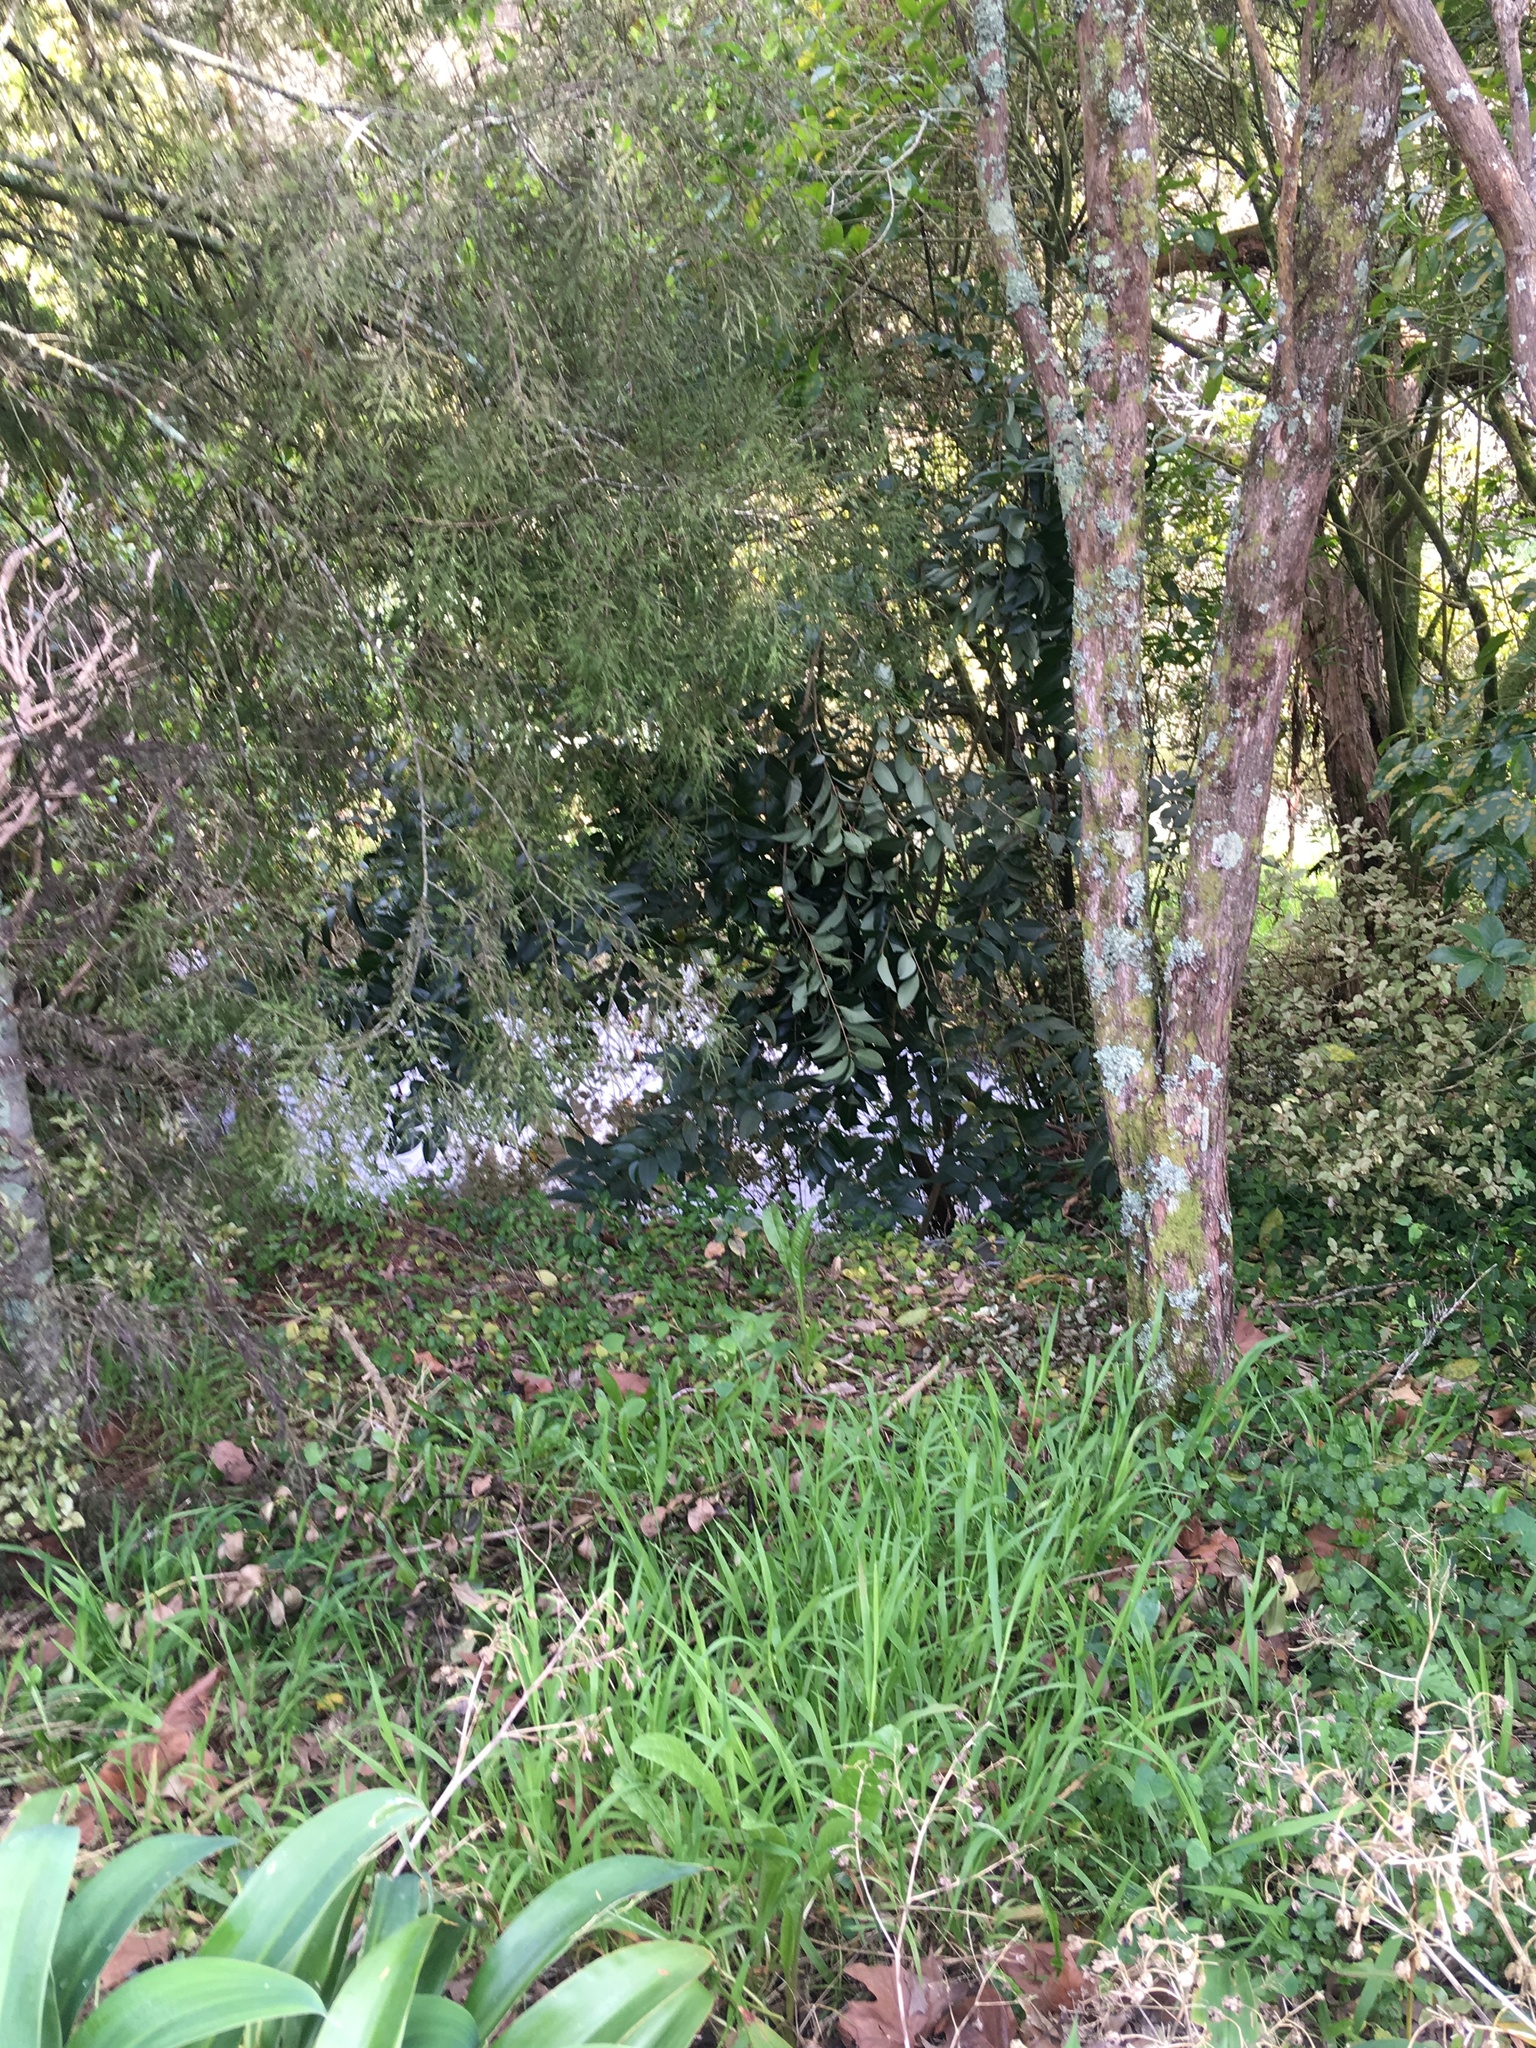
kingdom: Plantae
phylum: Tracheophyta
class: Liliopsida
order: Commelinales
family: Commelinaceae
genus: Tradescantia
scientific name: Tradescantia fluminensis
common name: Wandering-jew
